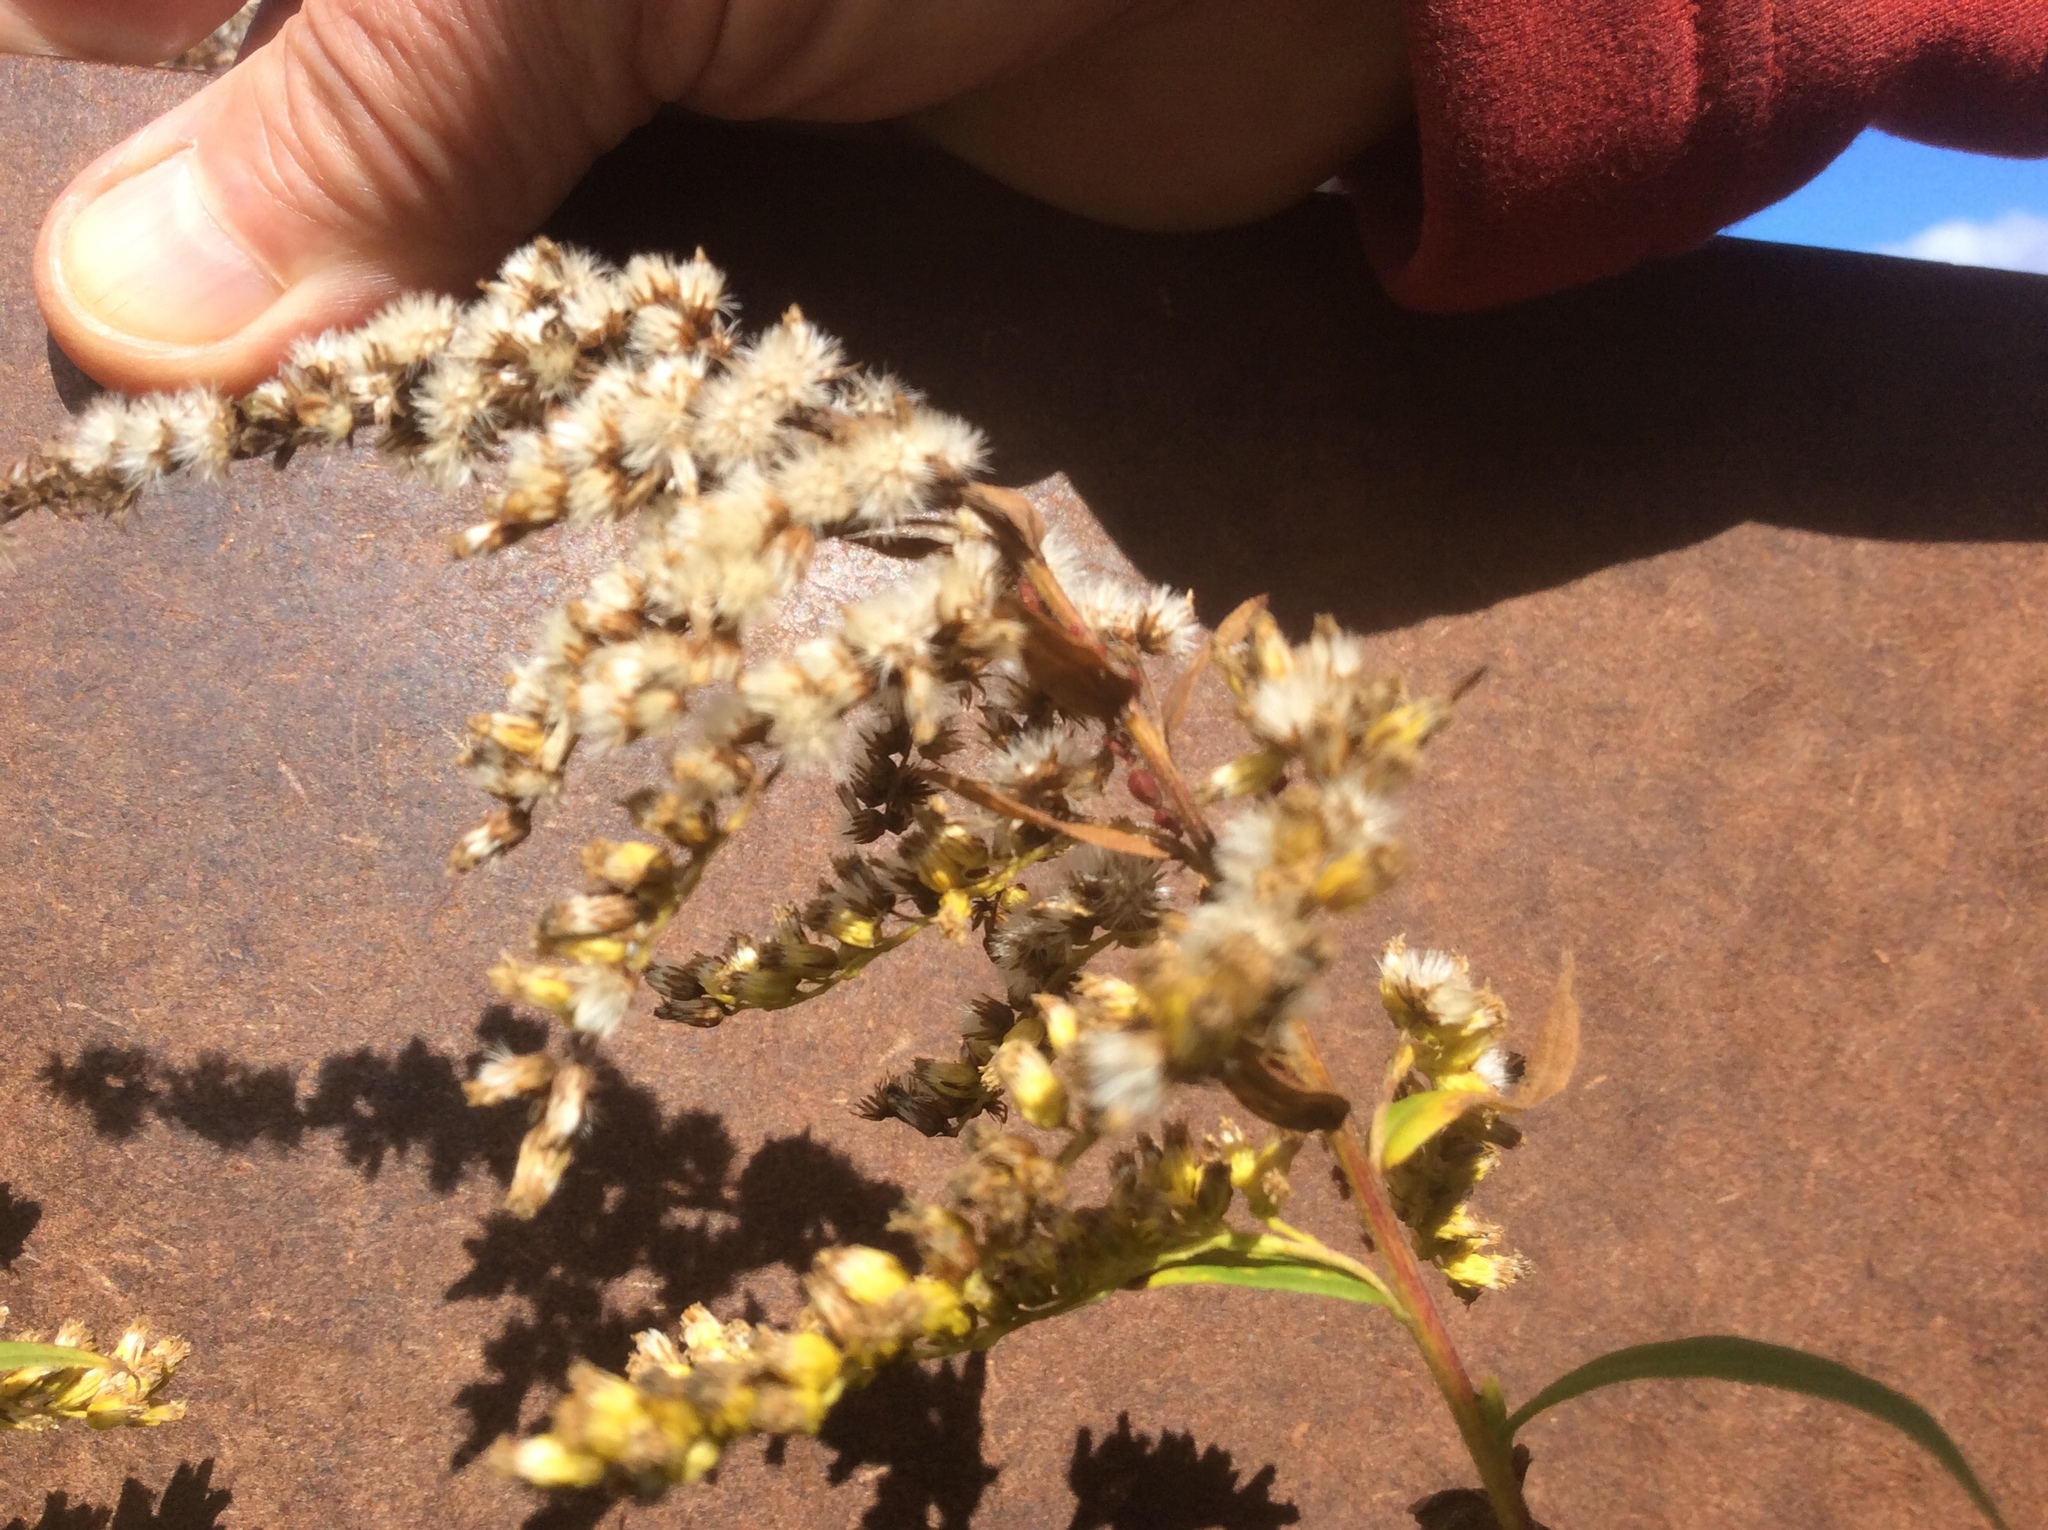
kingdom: Plantae
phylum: Tracheophyta
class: Magnoliopsida
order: Asterales
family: Asteraceae
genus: Solidago
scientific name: Solidago gigantea
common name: Giant goldenrod
